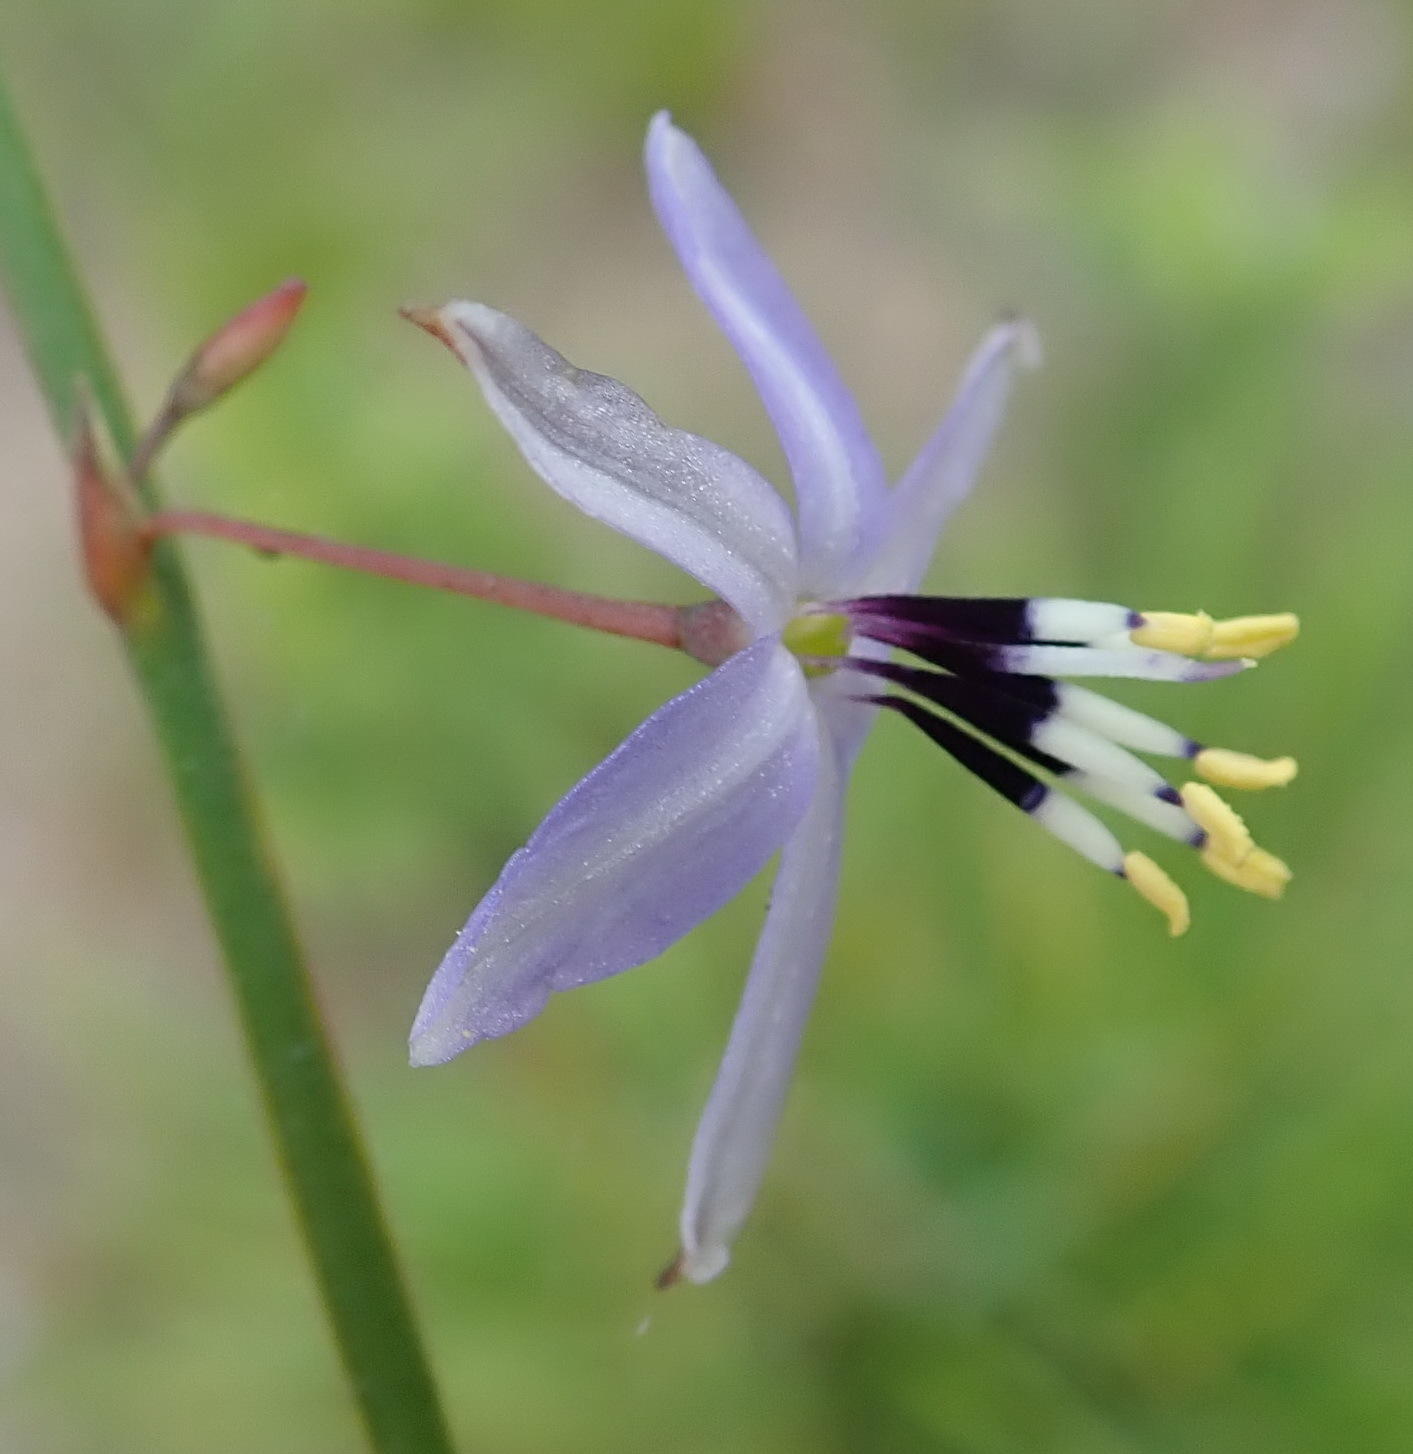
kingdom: Plantae
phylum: Tracheophyta
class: Liliopsida
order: Asparagales
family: Asphodelaceae
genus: Caesia
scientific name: Caesia contorta
